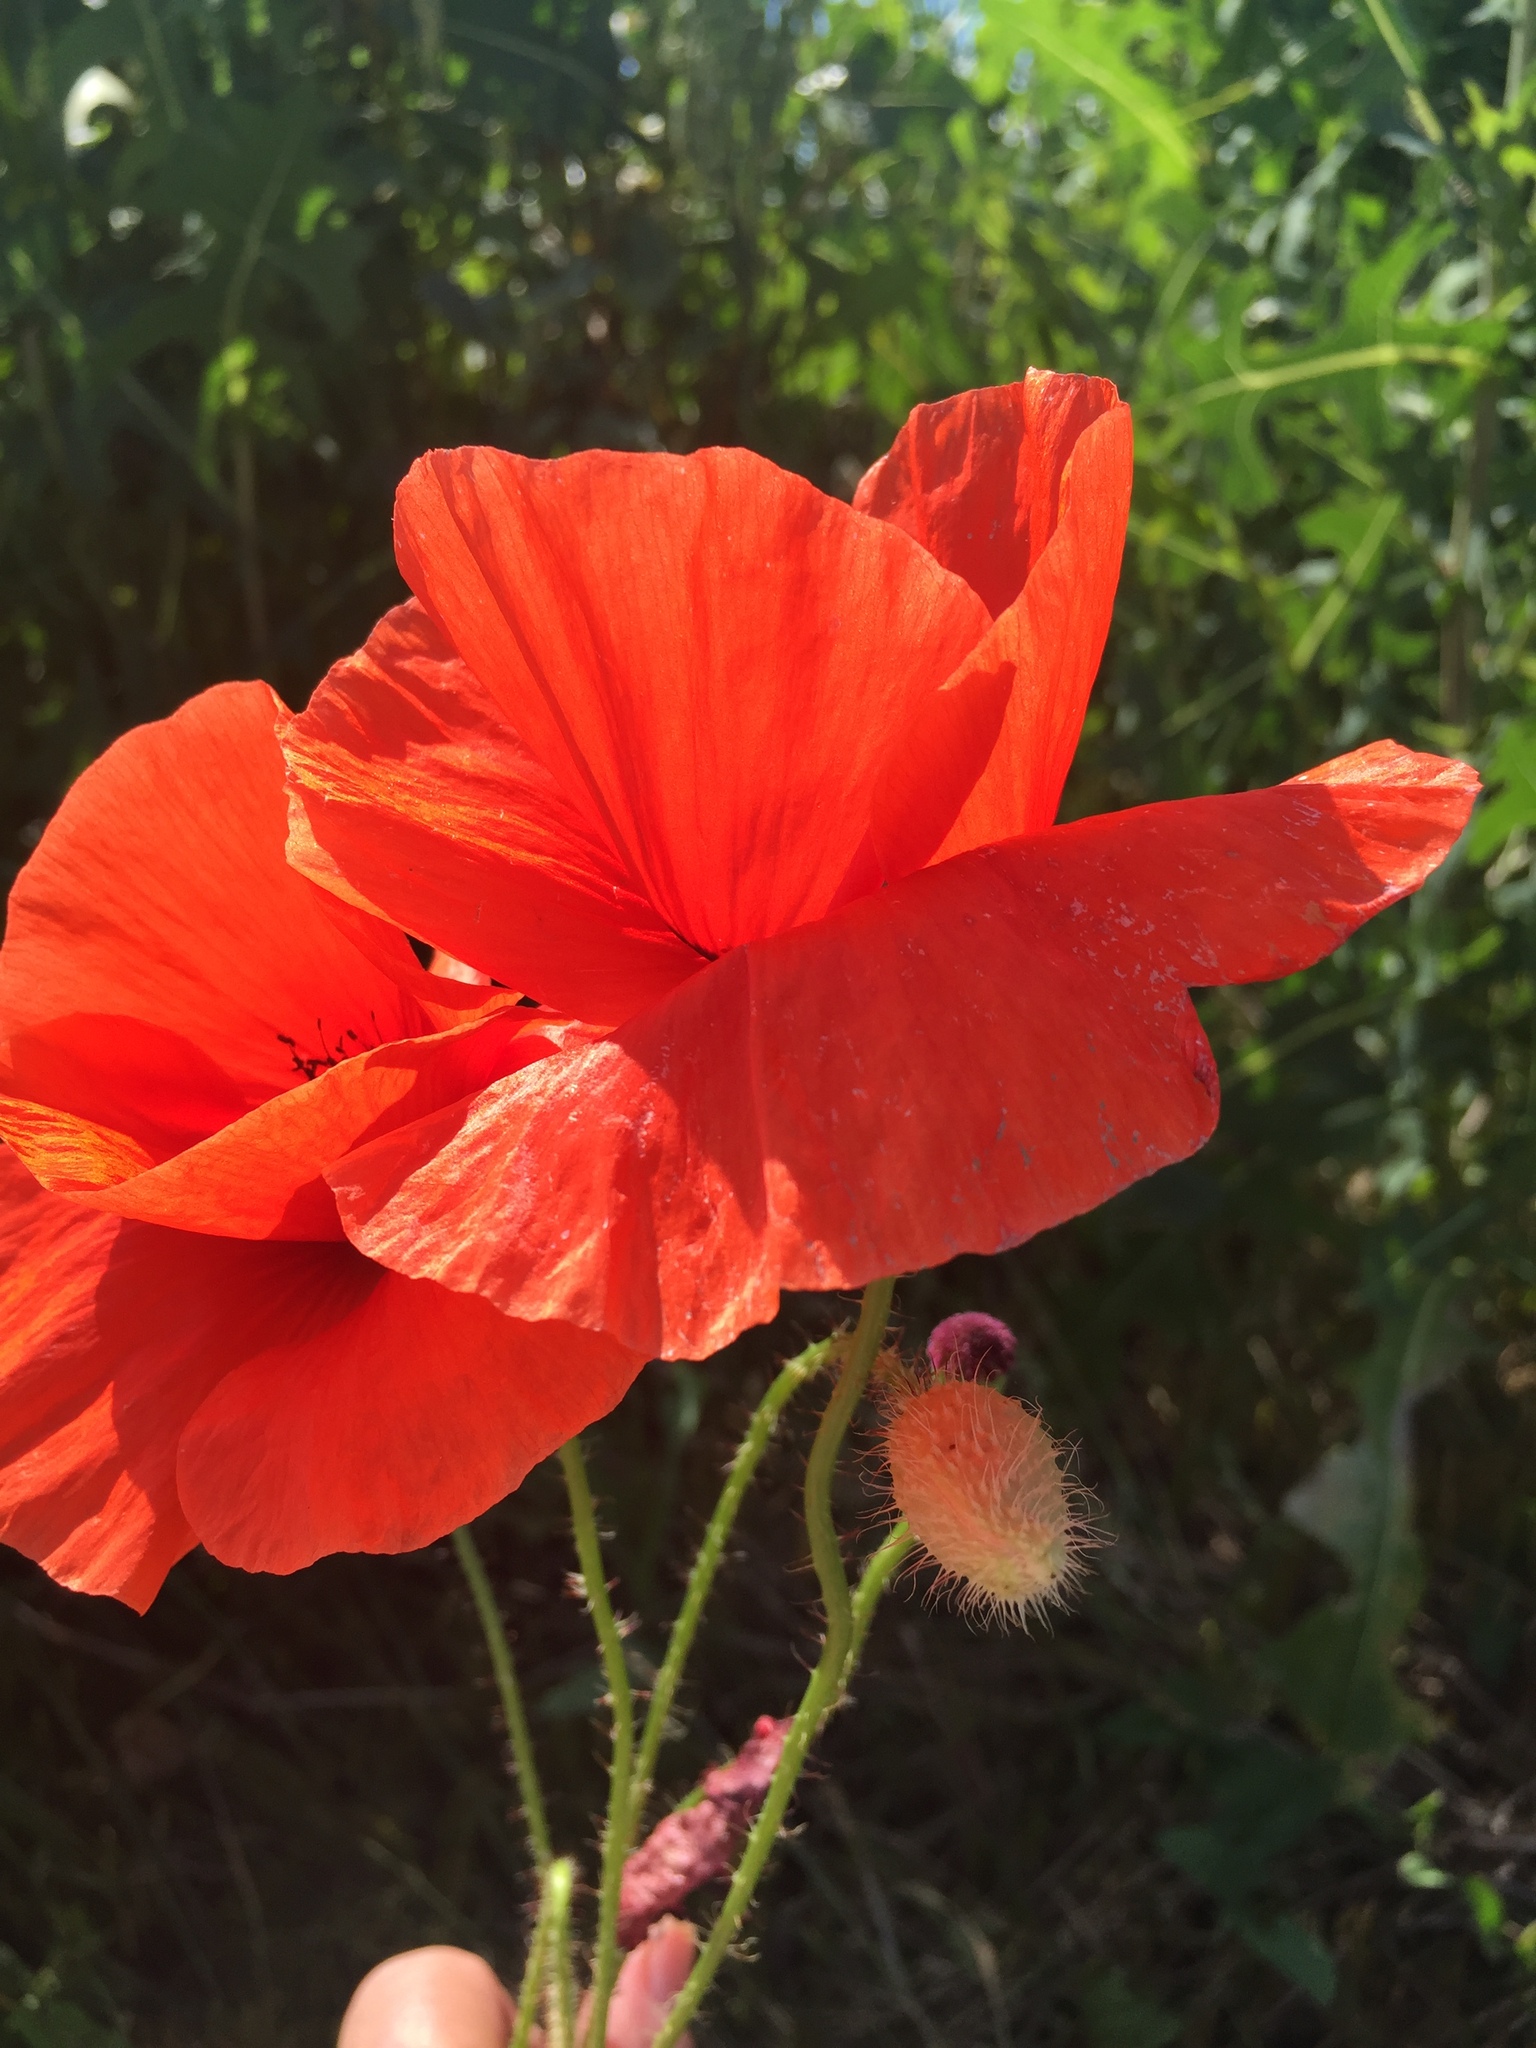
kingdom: Plantae
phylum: Tracheophyta
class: Magnoliopsida
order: Ranunculales
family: Papaveraceae
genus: Papaver
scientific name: Papaver rhoeas
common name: Corn poppy
